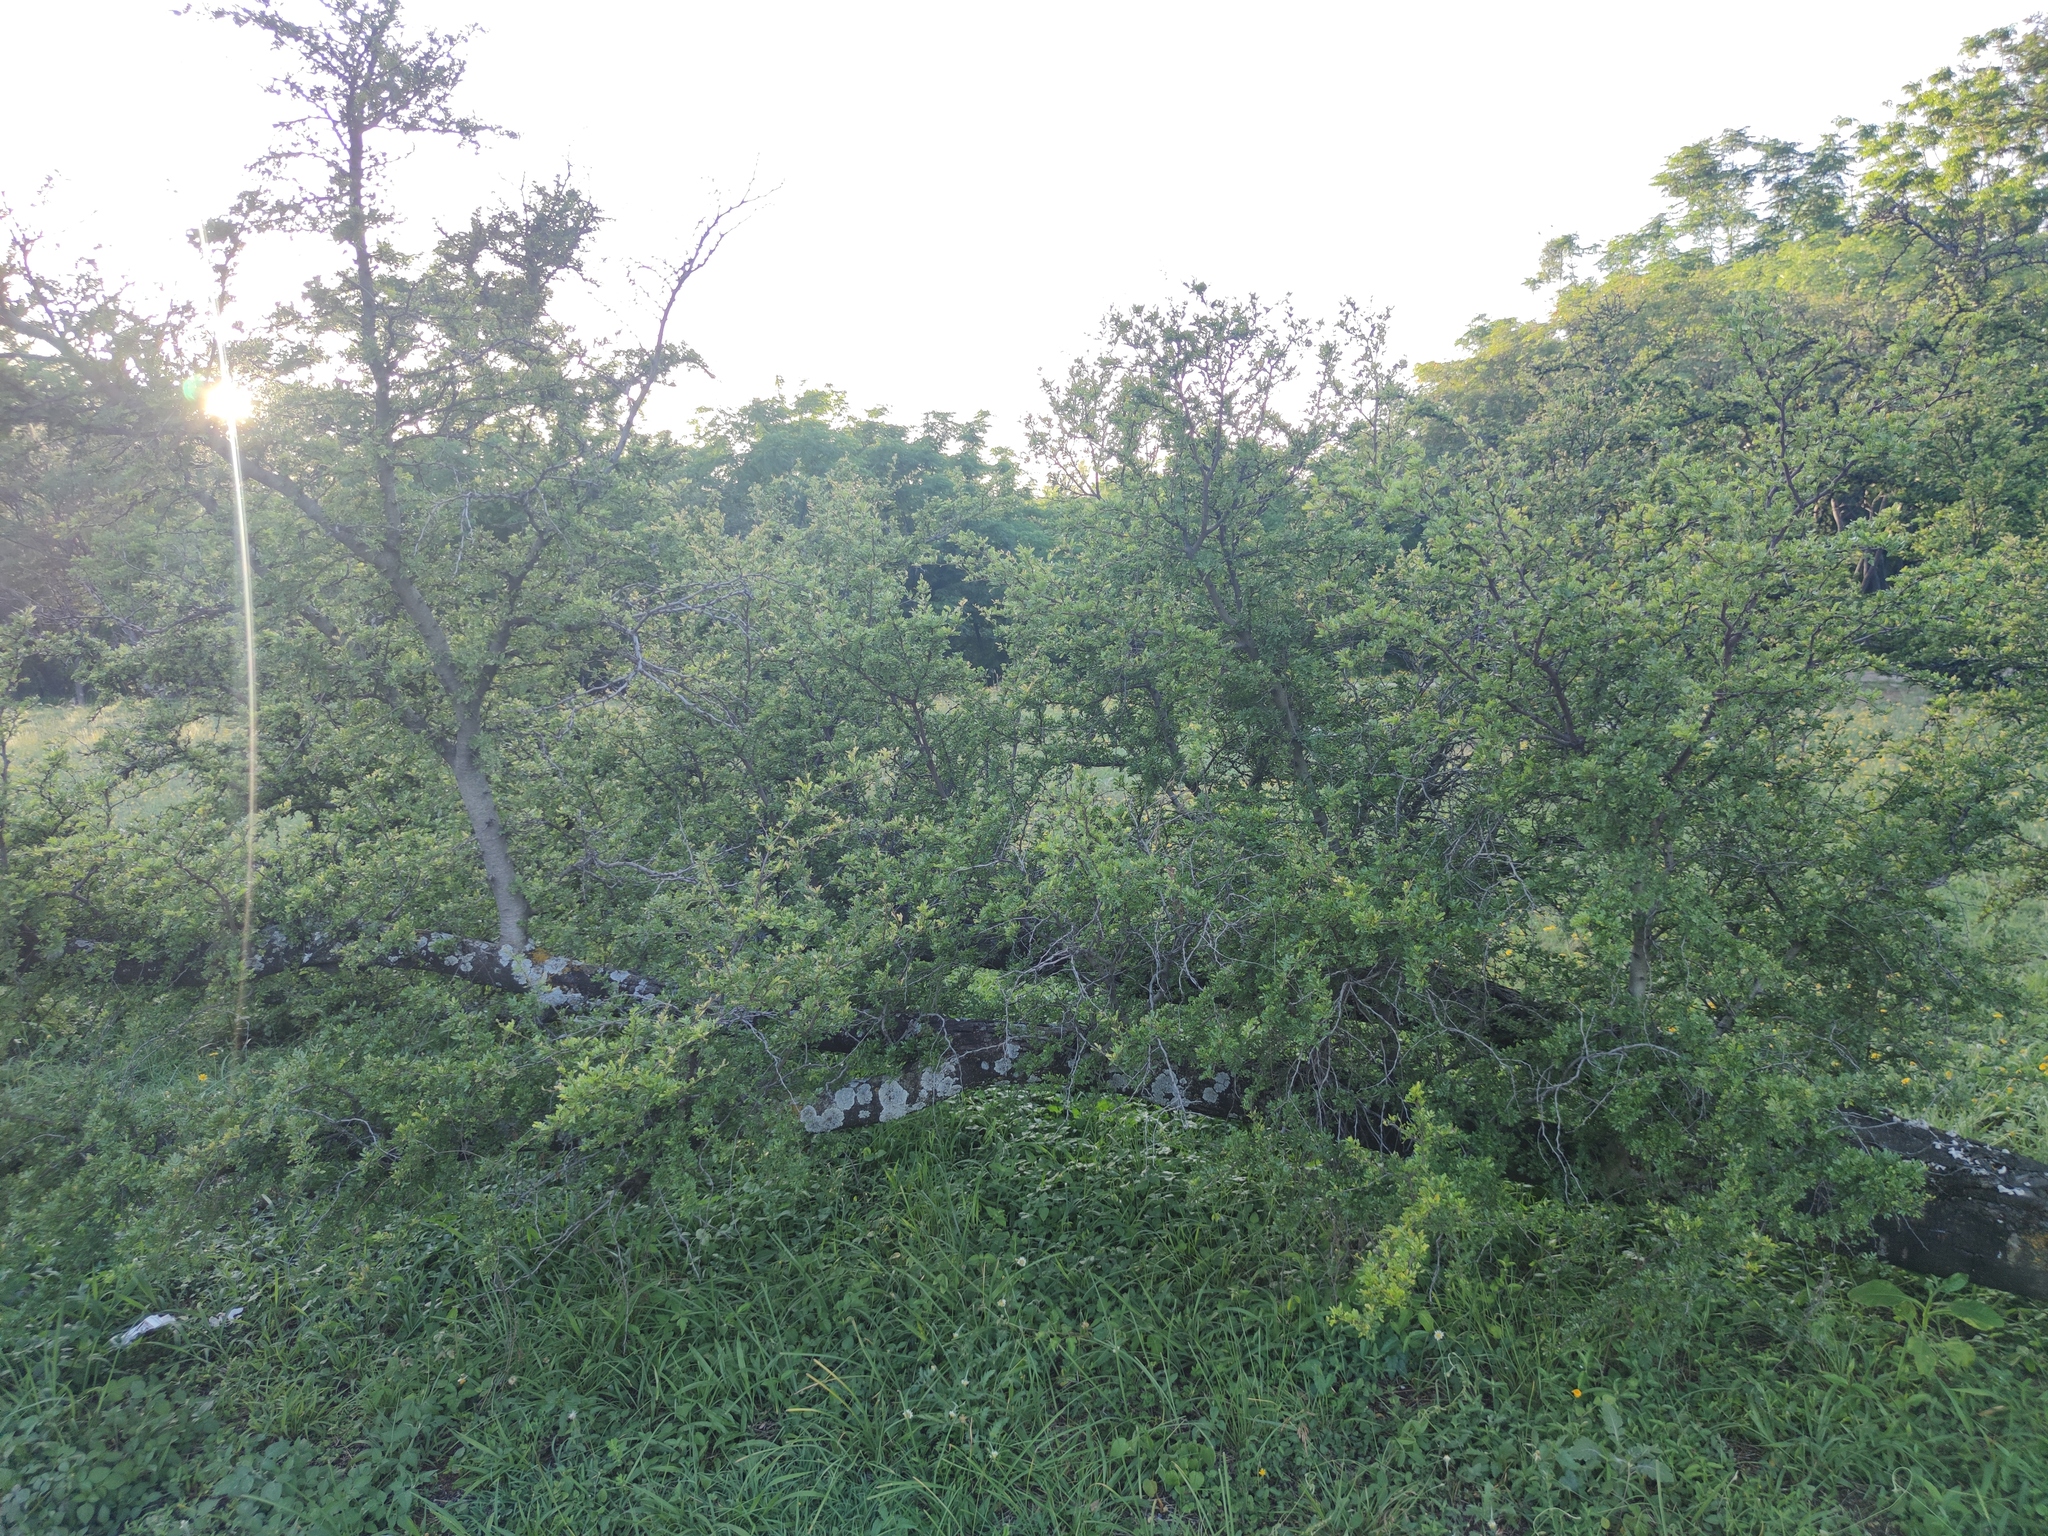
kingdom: Plantae
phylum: Tracheophyta
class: Magnoliopsida
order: Fabales
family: Fabaceae
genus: Vachellia
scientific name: Vachellia rigidula
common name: Blackbrush
